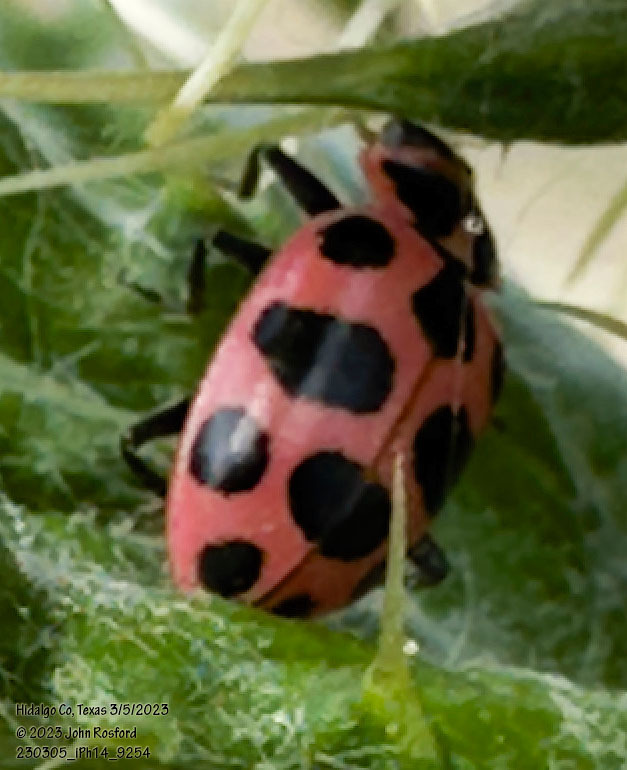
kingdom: Animalia
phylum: Arthropoda
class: Insecta
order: Coleoptera
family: Coccinellidae
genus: Coleomegilla
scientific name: Coleomegilla maculata
